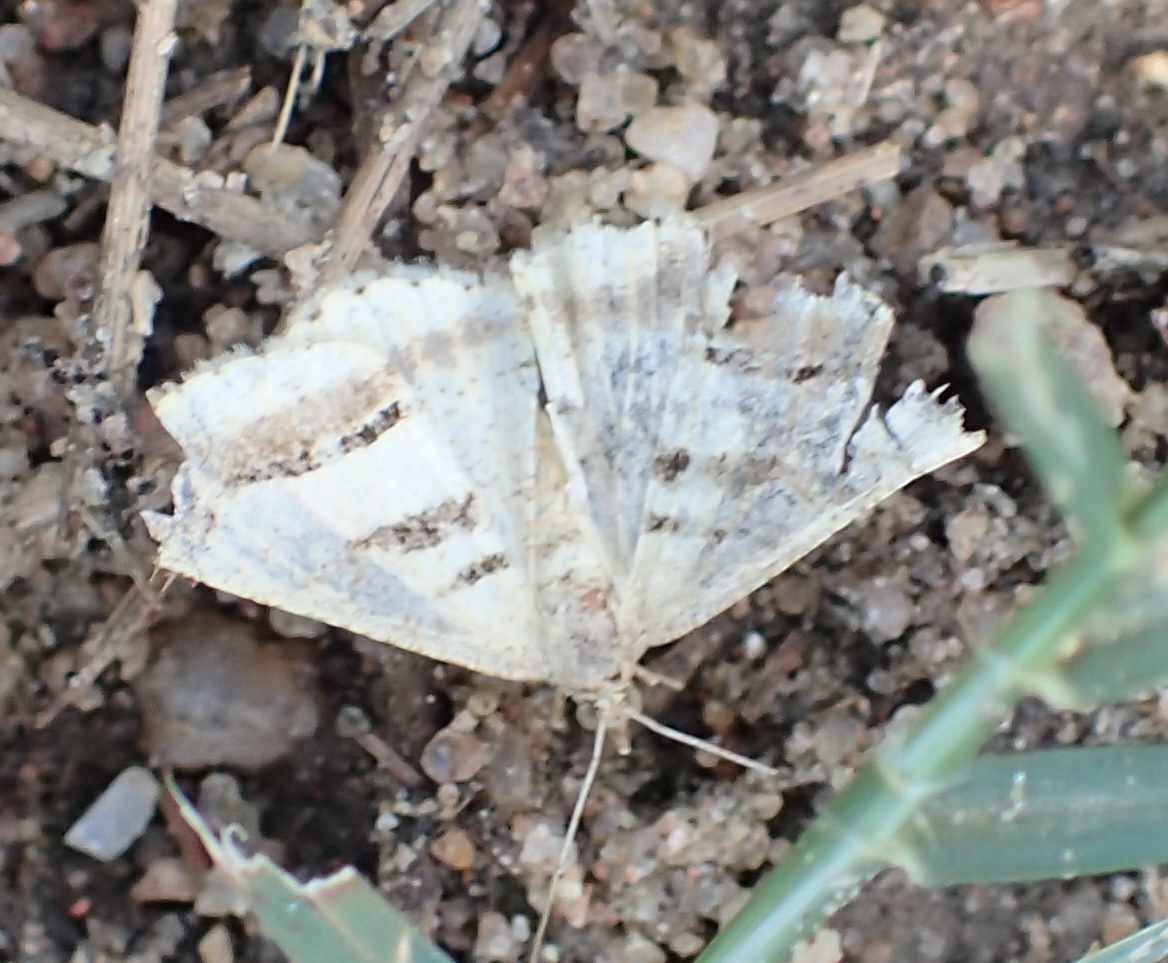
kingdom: Animalia
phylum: Arthropoda
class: Insecta
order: Lepidoptera
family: Geometridae
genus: Chiasmia
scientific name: Chiasmia subcurvaria
